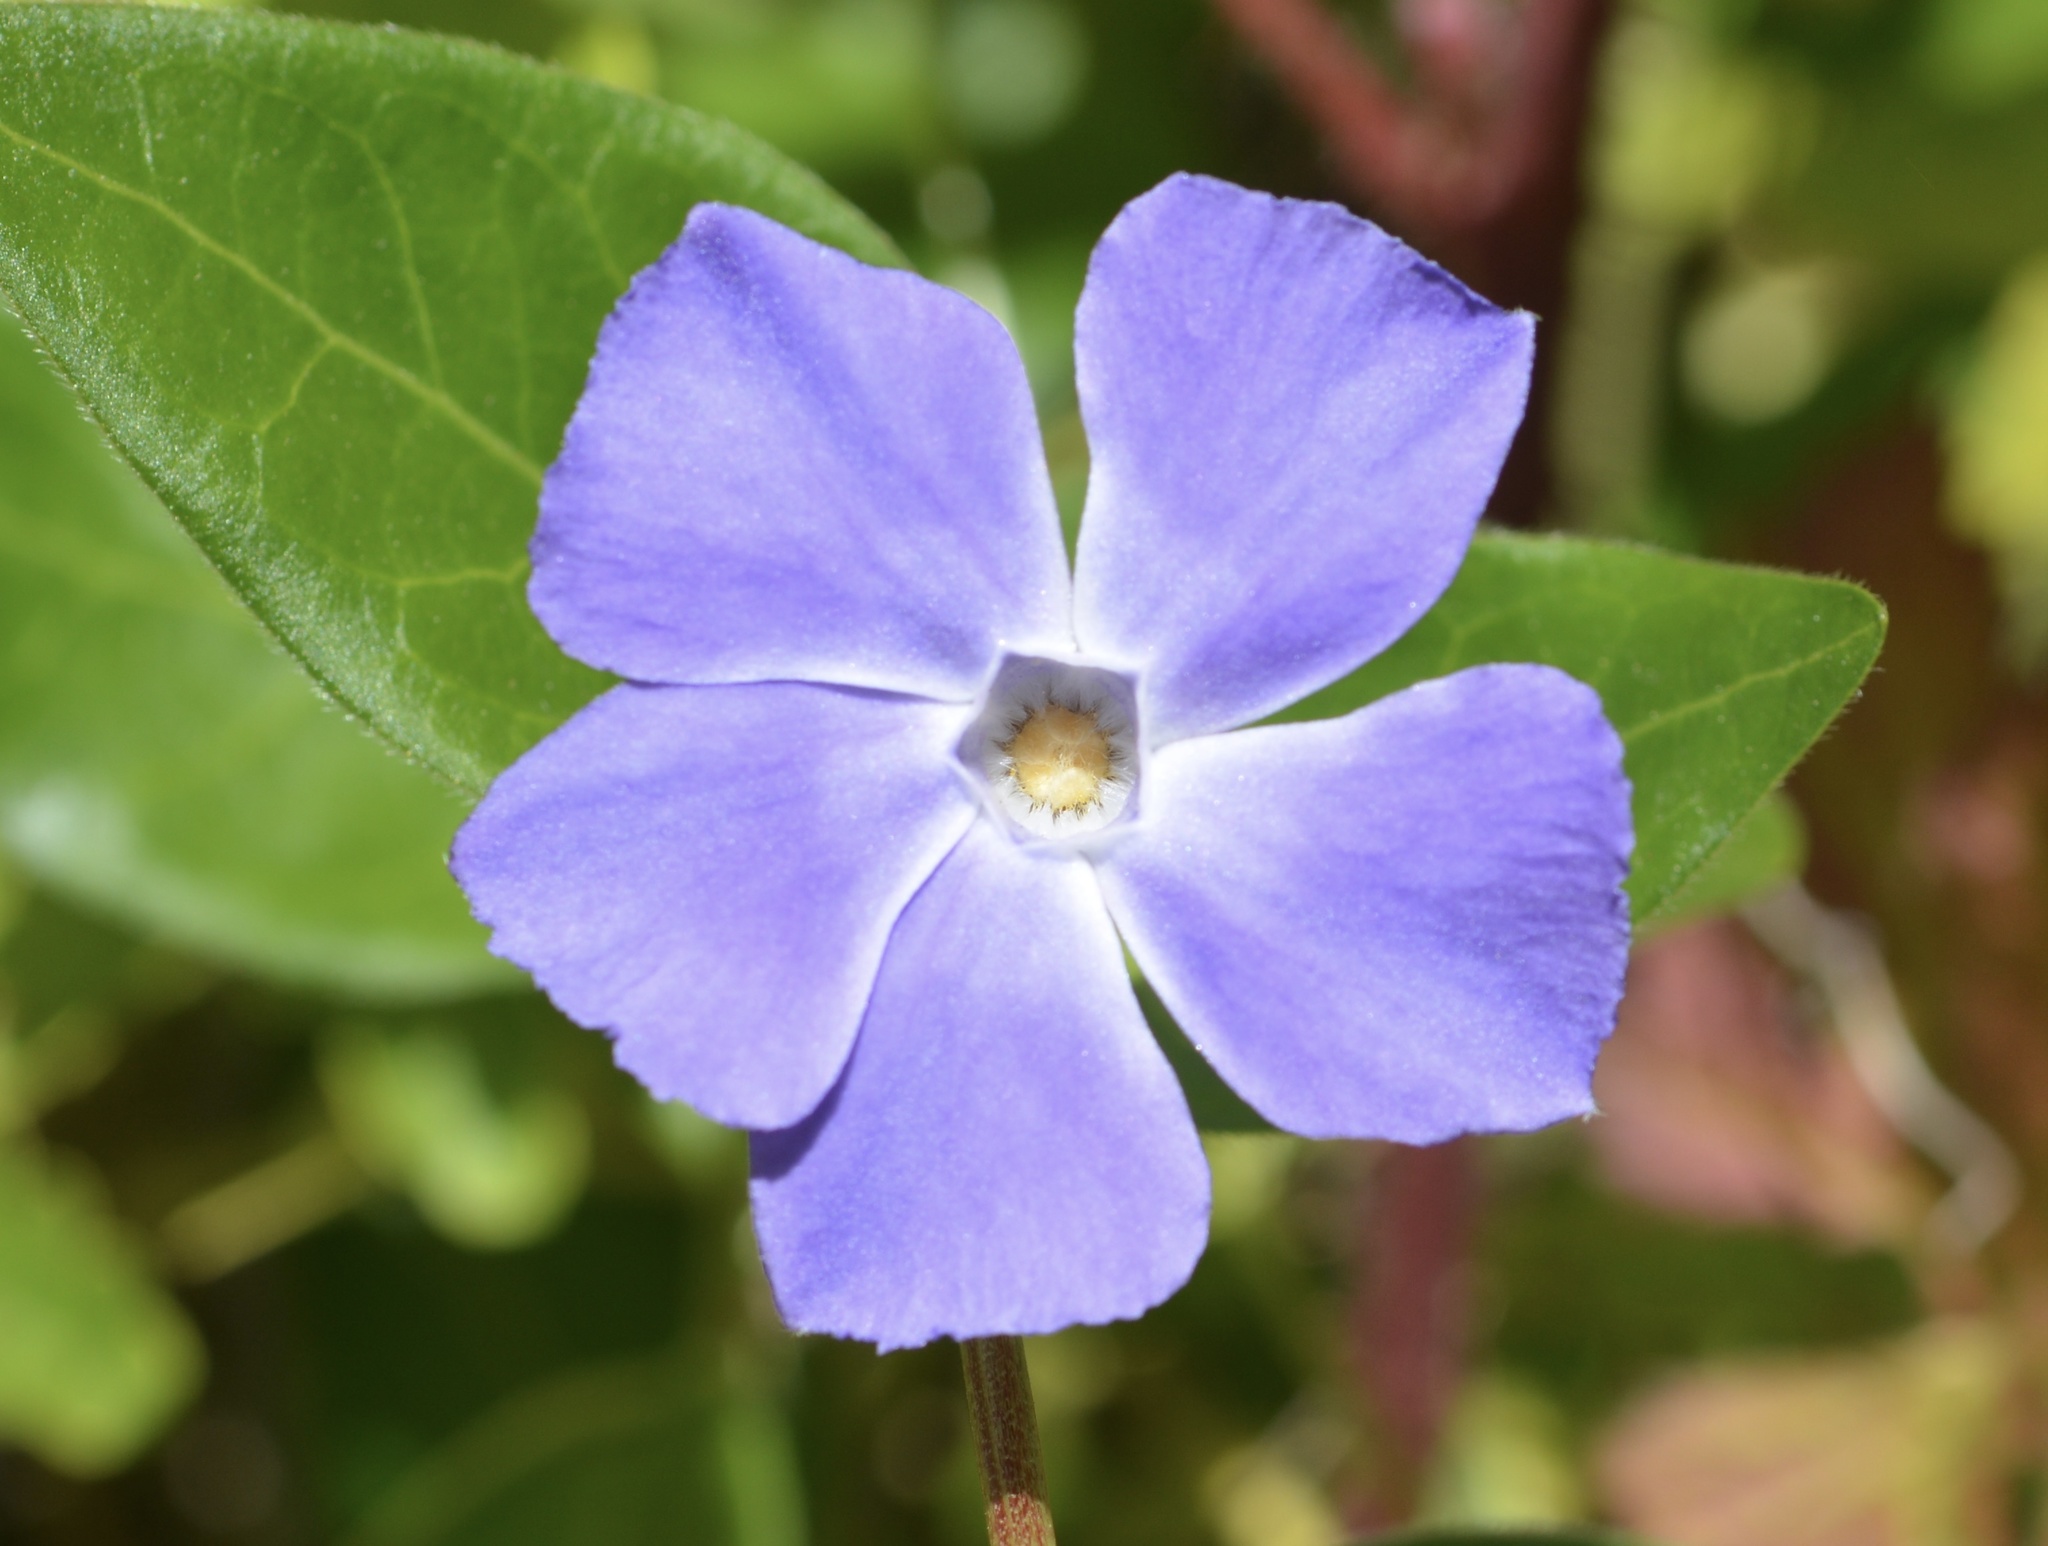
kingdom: Plantae
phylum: Tracheophyta
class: Magnoliopsida
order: Gentianales
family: Apocynaceae
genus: Vinca
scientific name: Vinca major
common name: Greater periwinkle
